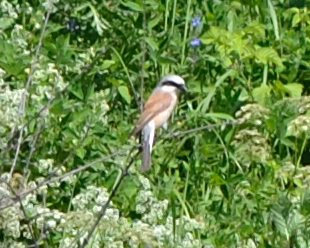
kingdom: Animalia
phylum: Chordata
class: Aves
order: Passeriformes
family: Laniidae
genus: Lanius
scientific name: Lanius collurio
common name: Red-backed shrike
